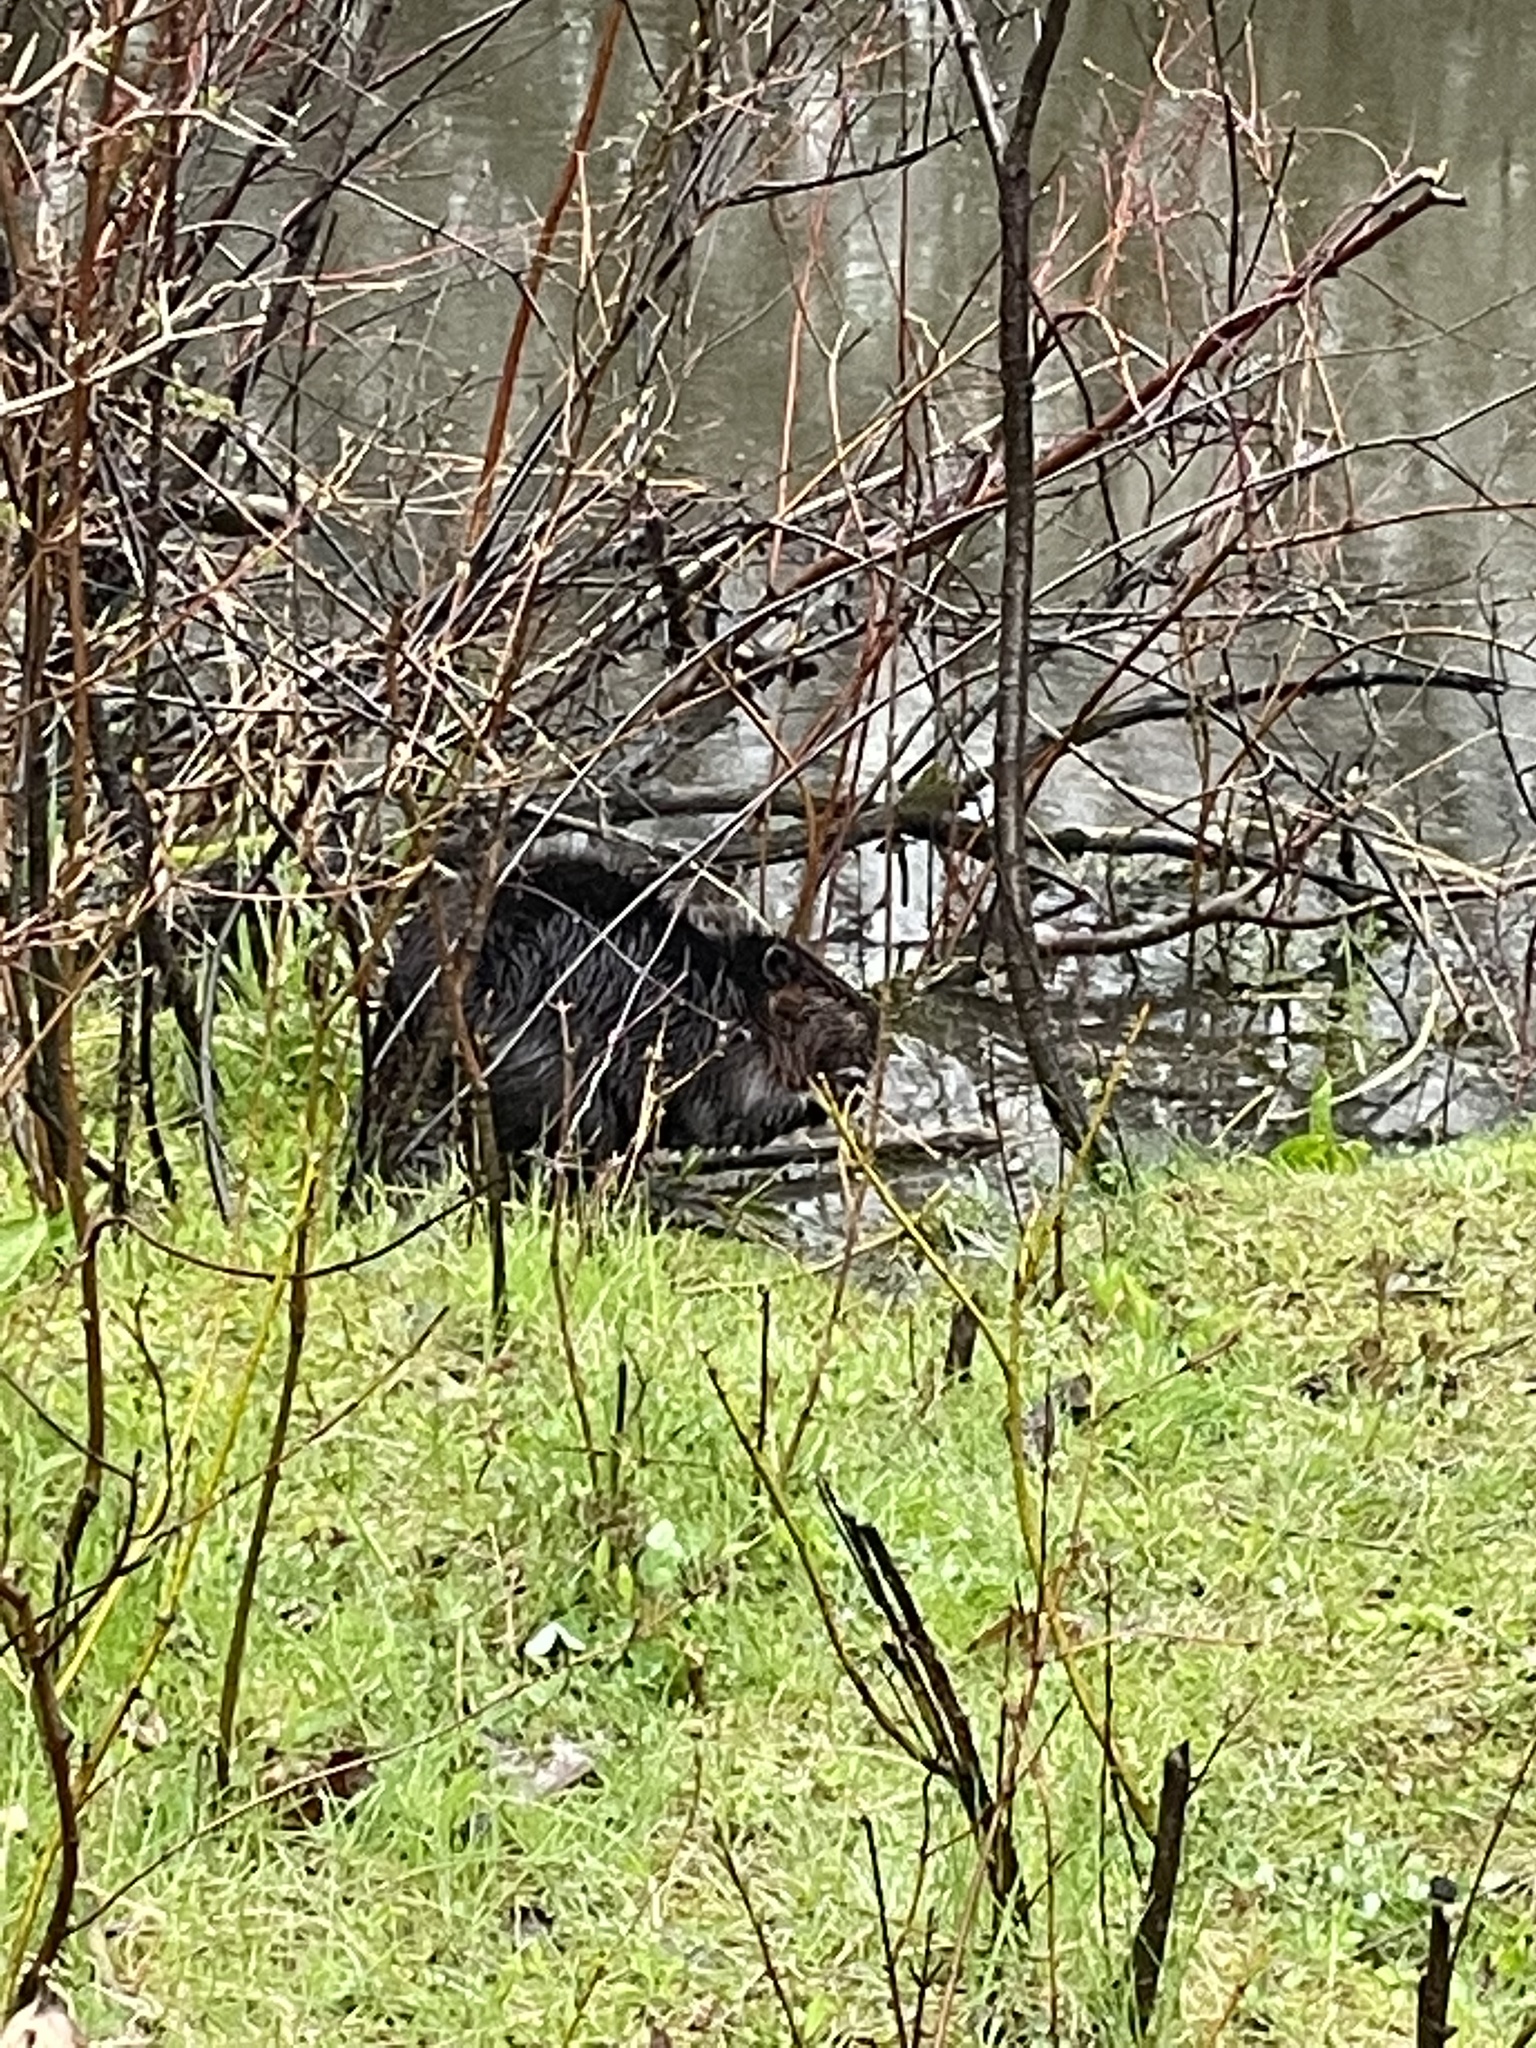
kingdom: Animalia
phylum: Chordata
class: Mammalia
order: Rodentia
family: Castoridae
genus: Castor
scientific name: Castor canadensis
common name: American beaver
